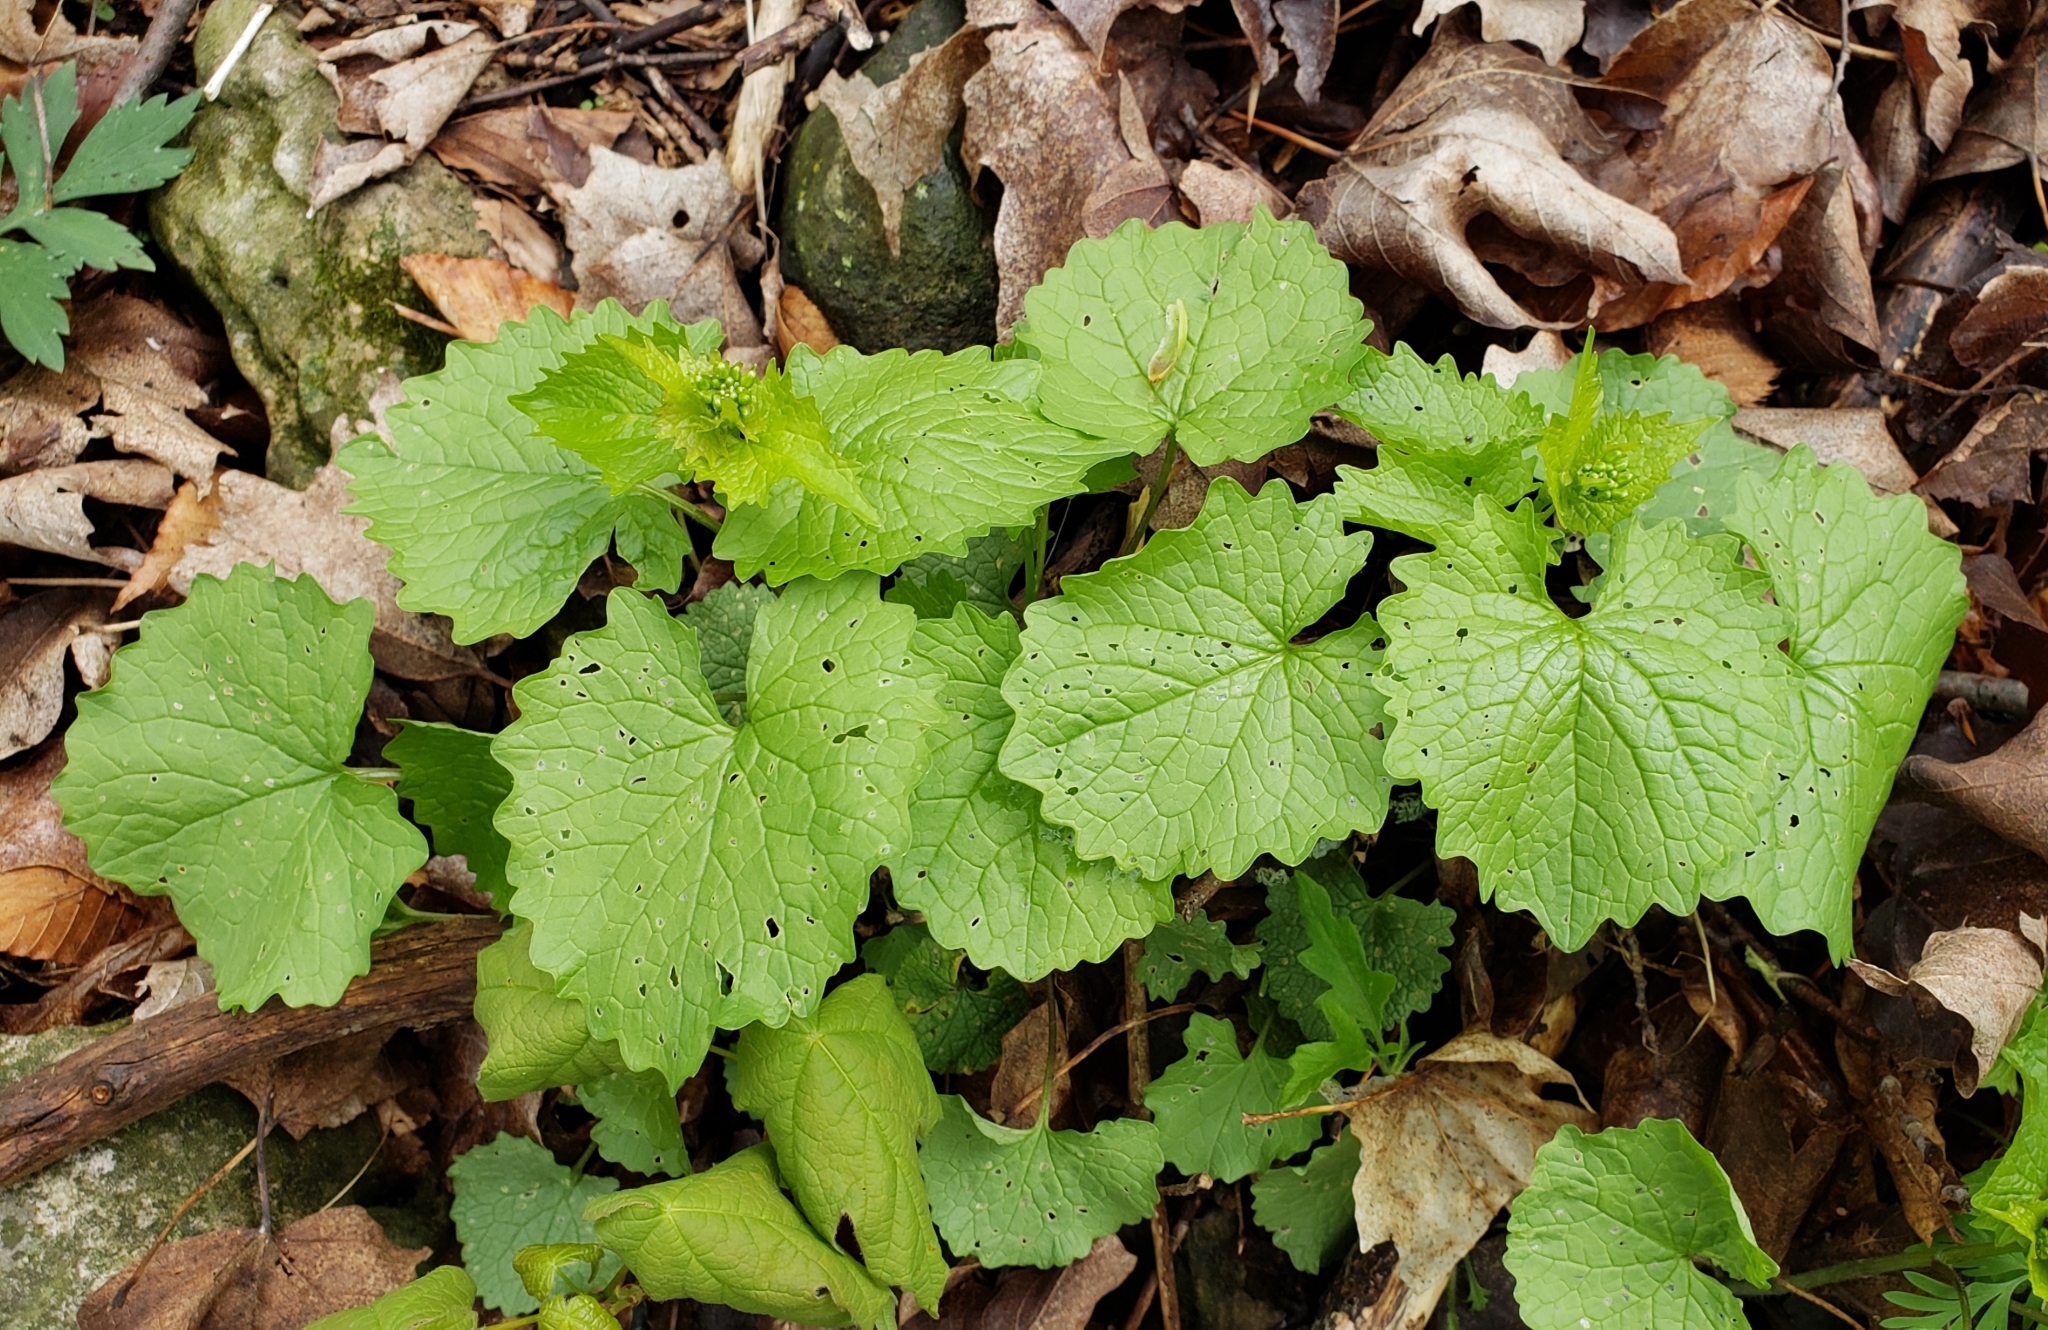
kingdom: Plantae
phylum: Tracheophyta
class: Magnoliopsida
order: Brassicales
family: Brassicaceae
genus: Alliaria
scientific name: Alliaria petiolata
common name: Garlic mustard
